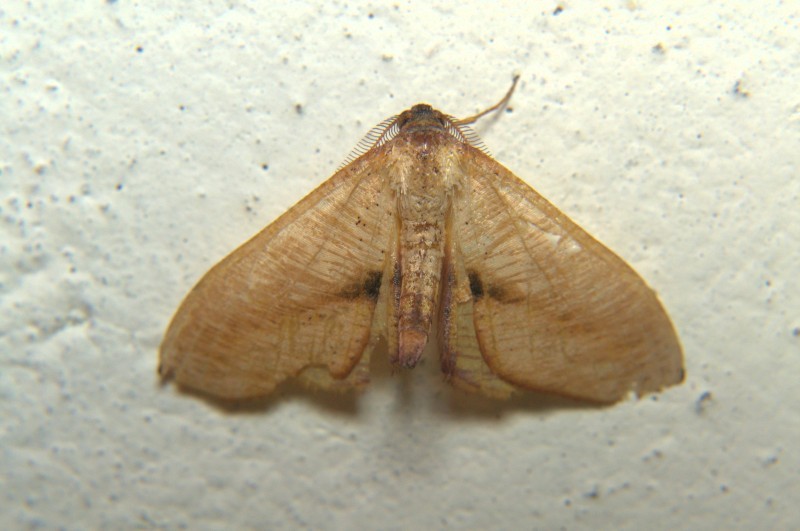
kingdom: Animalia
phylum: Arthropoda
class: Insecta
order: Lepidoptera
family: Geometridae
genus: Plagodis
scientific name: Plagodis reticulata
